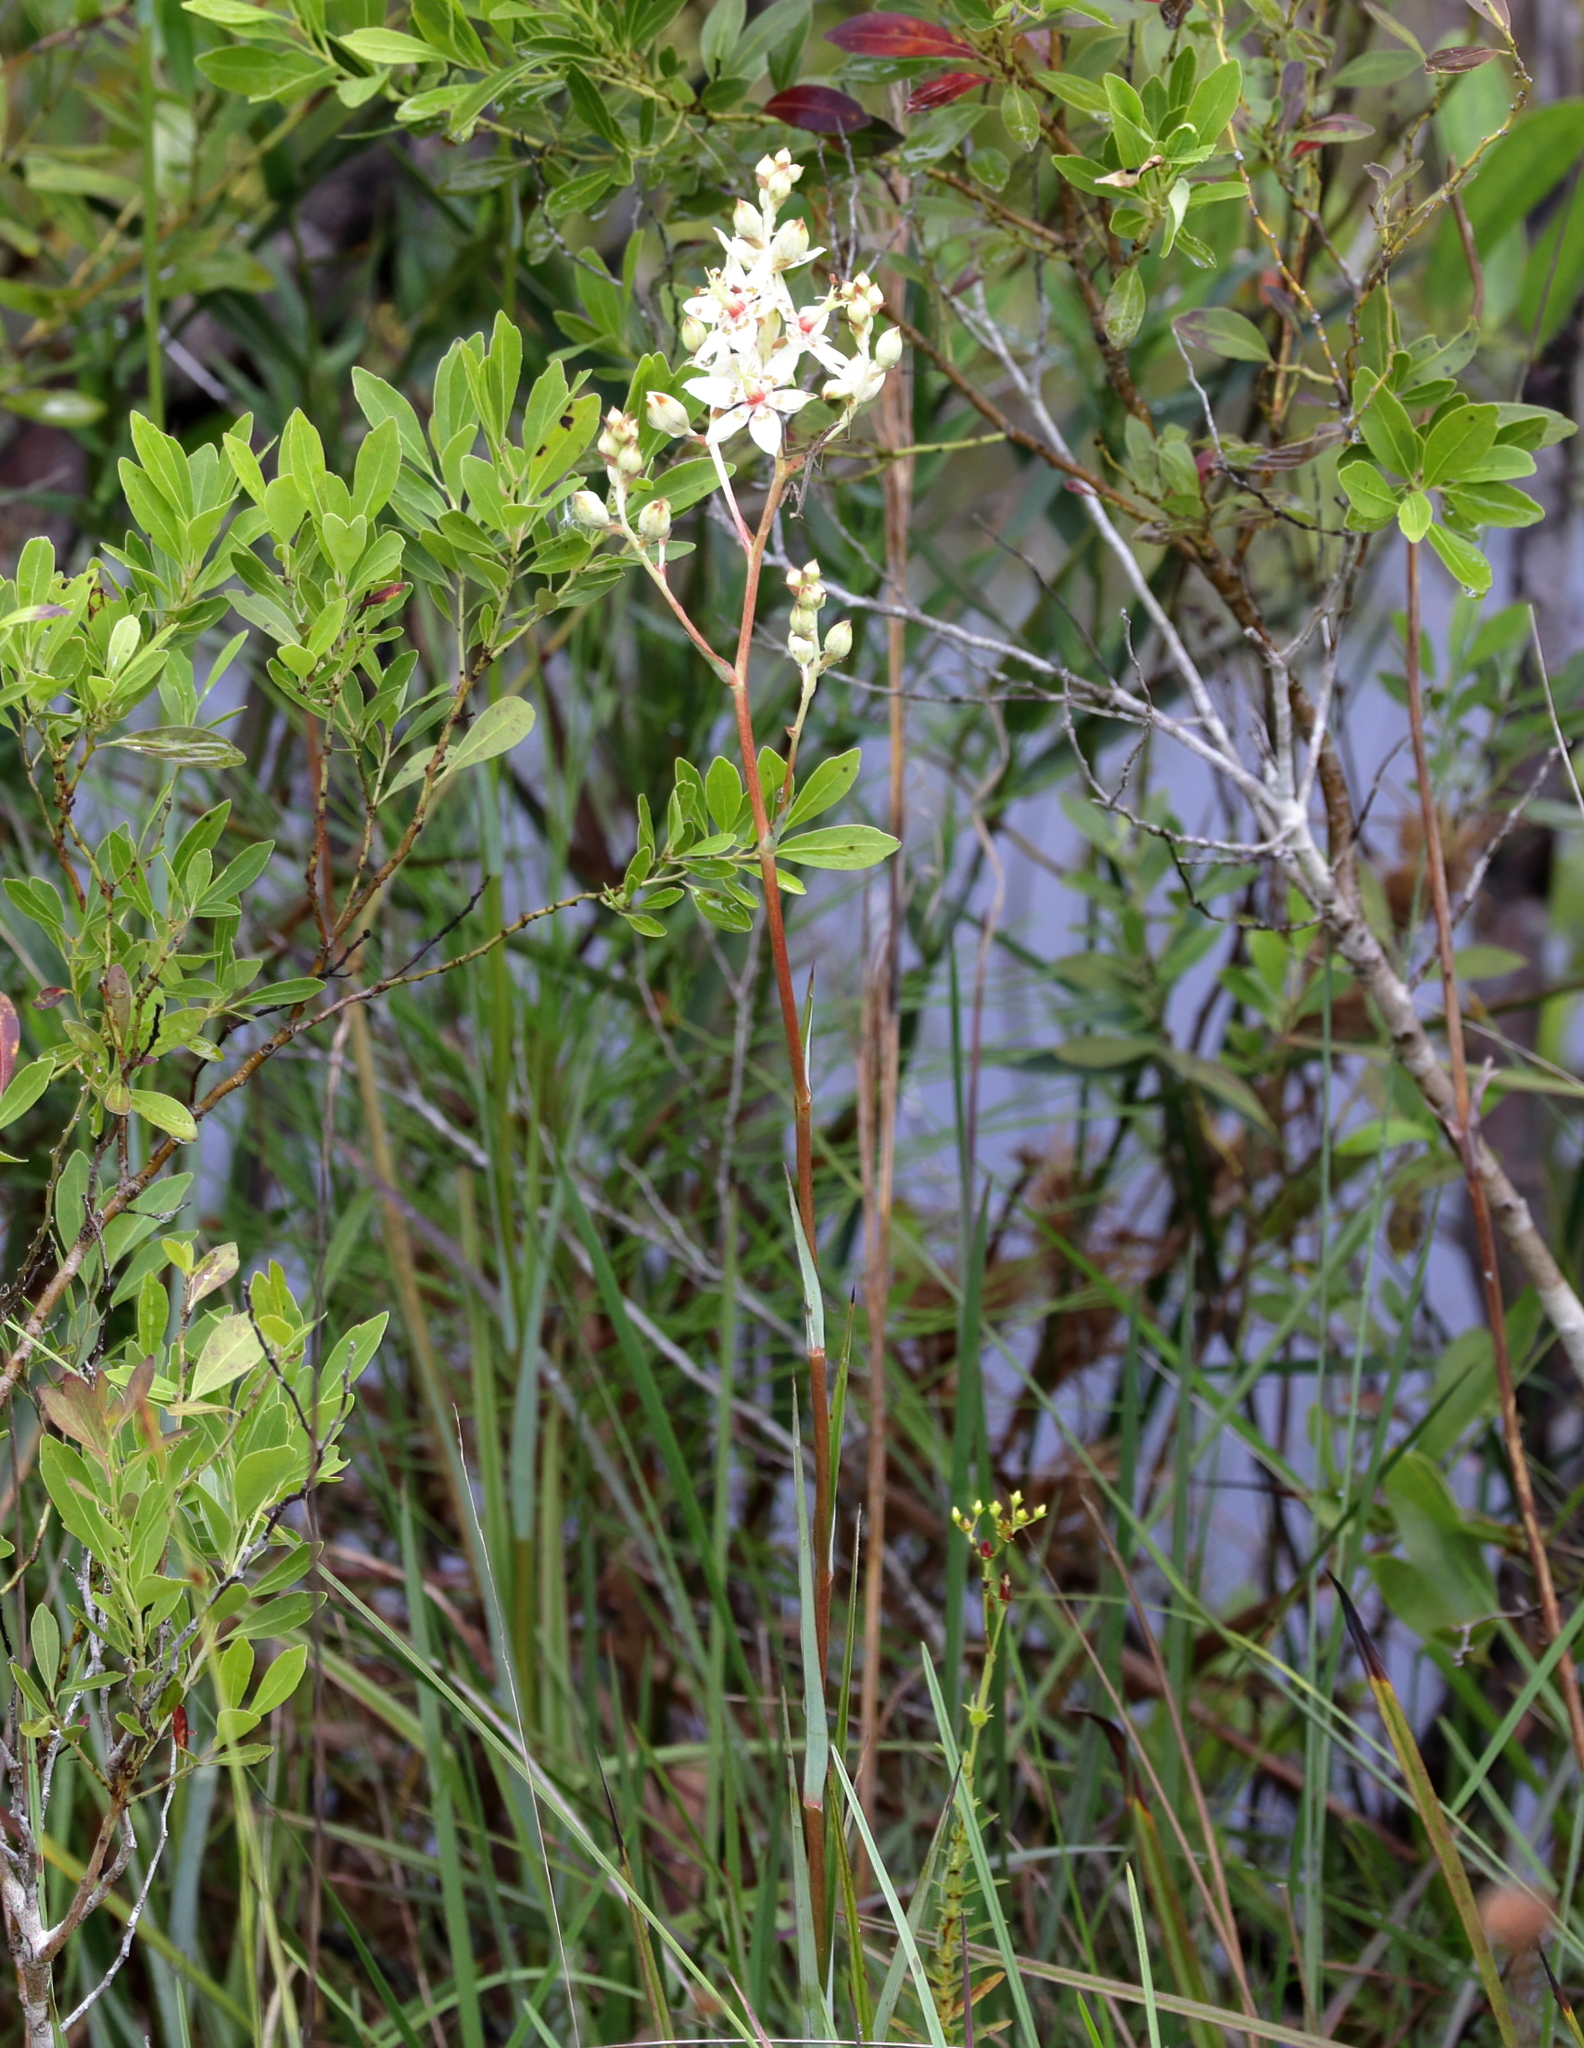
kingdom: Plantae
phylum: Tracheophyta
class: Liliopsida
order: Liliales
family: Melanthiaceae
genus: Zigadenus
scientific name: Zigadenus glaberrimus
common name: Sandbog death camas
